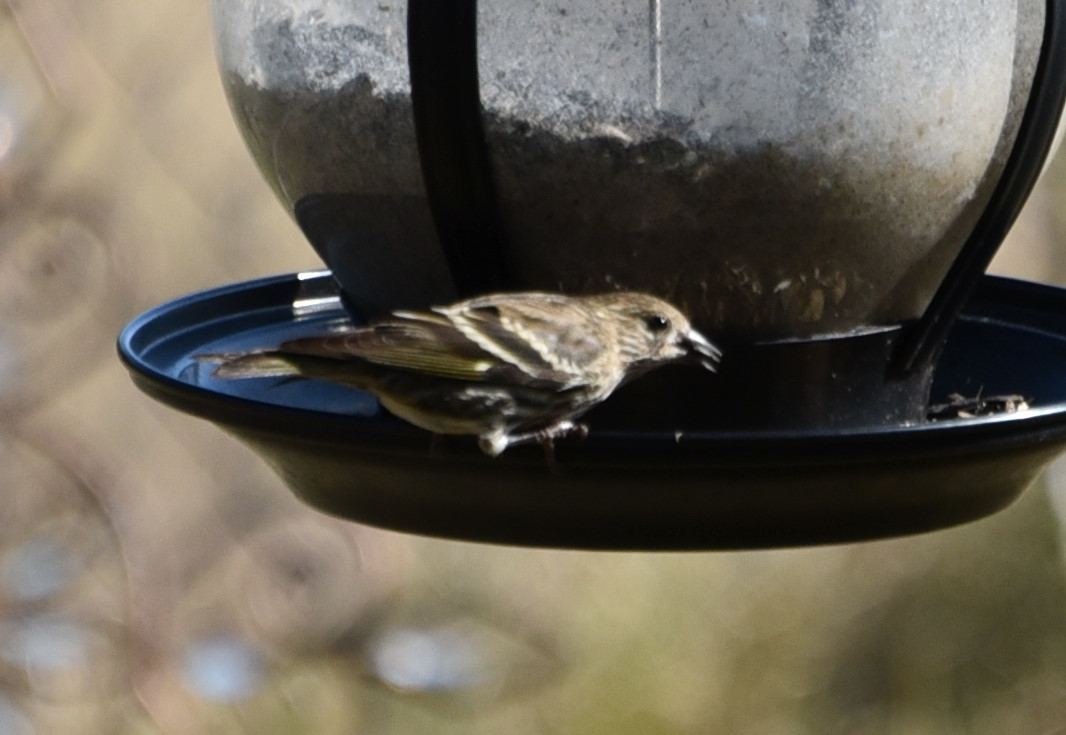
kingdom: Animalia
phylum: Chordata
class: Aves
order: Passeriformes
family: Fringillidae
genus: Spinus
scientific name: Spinus pinus
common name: Pine siskin
